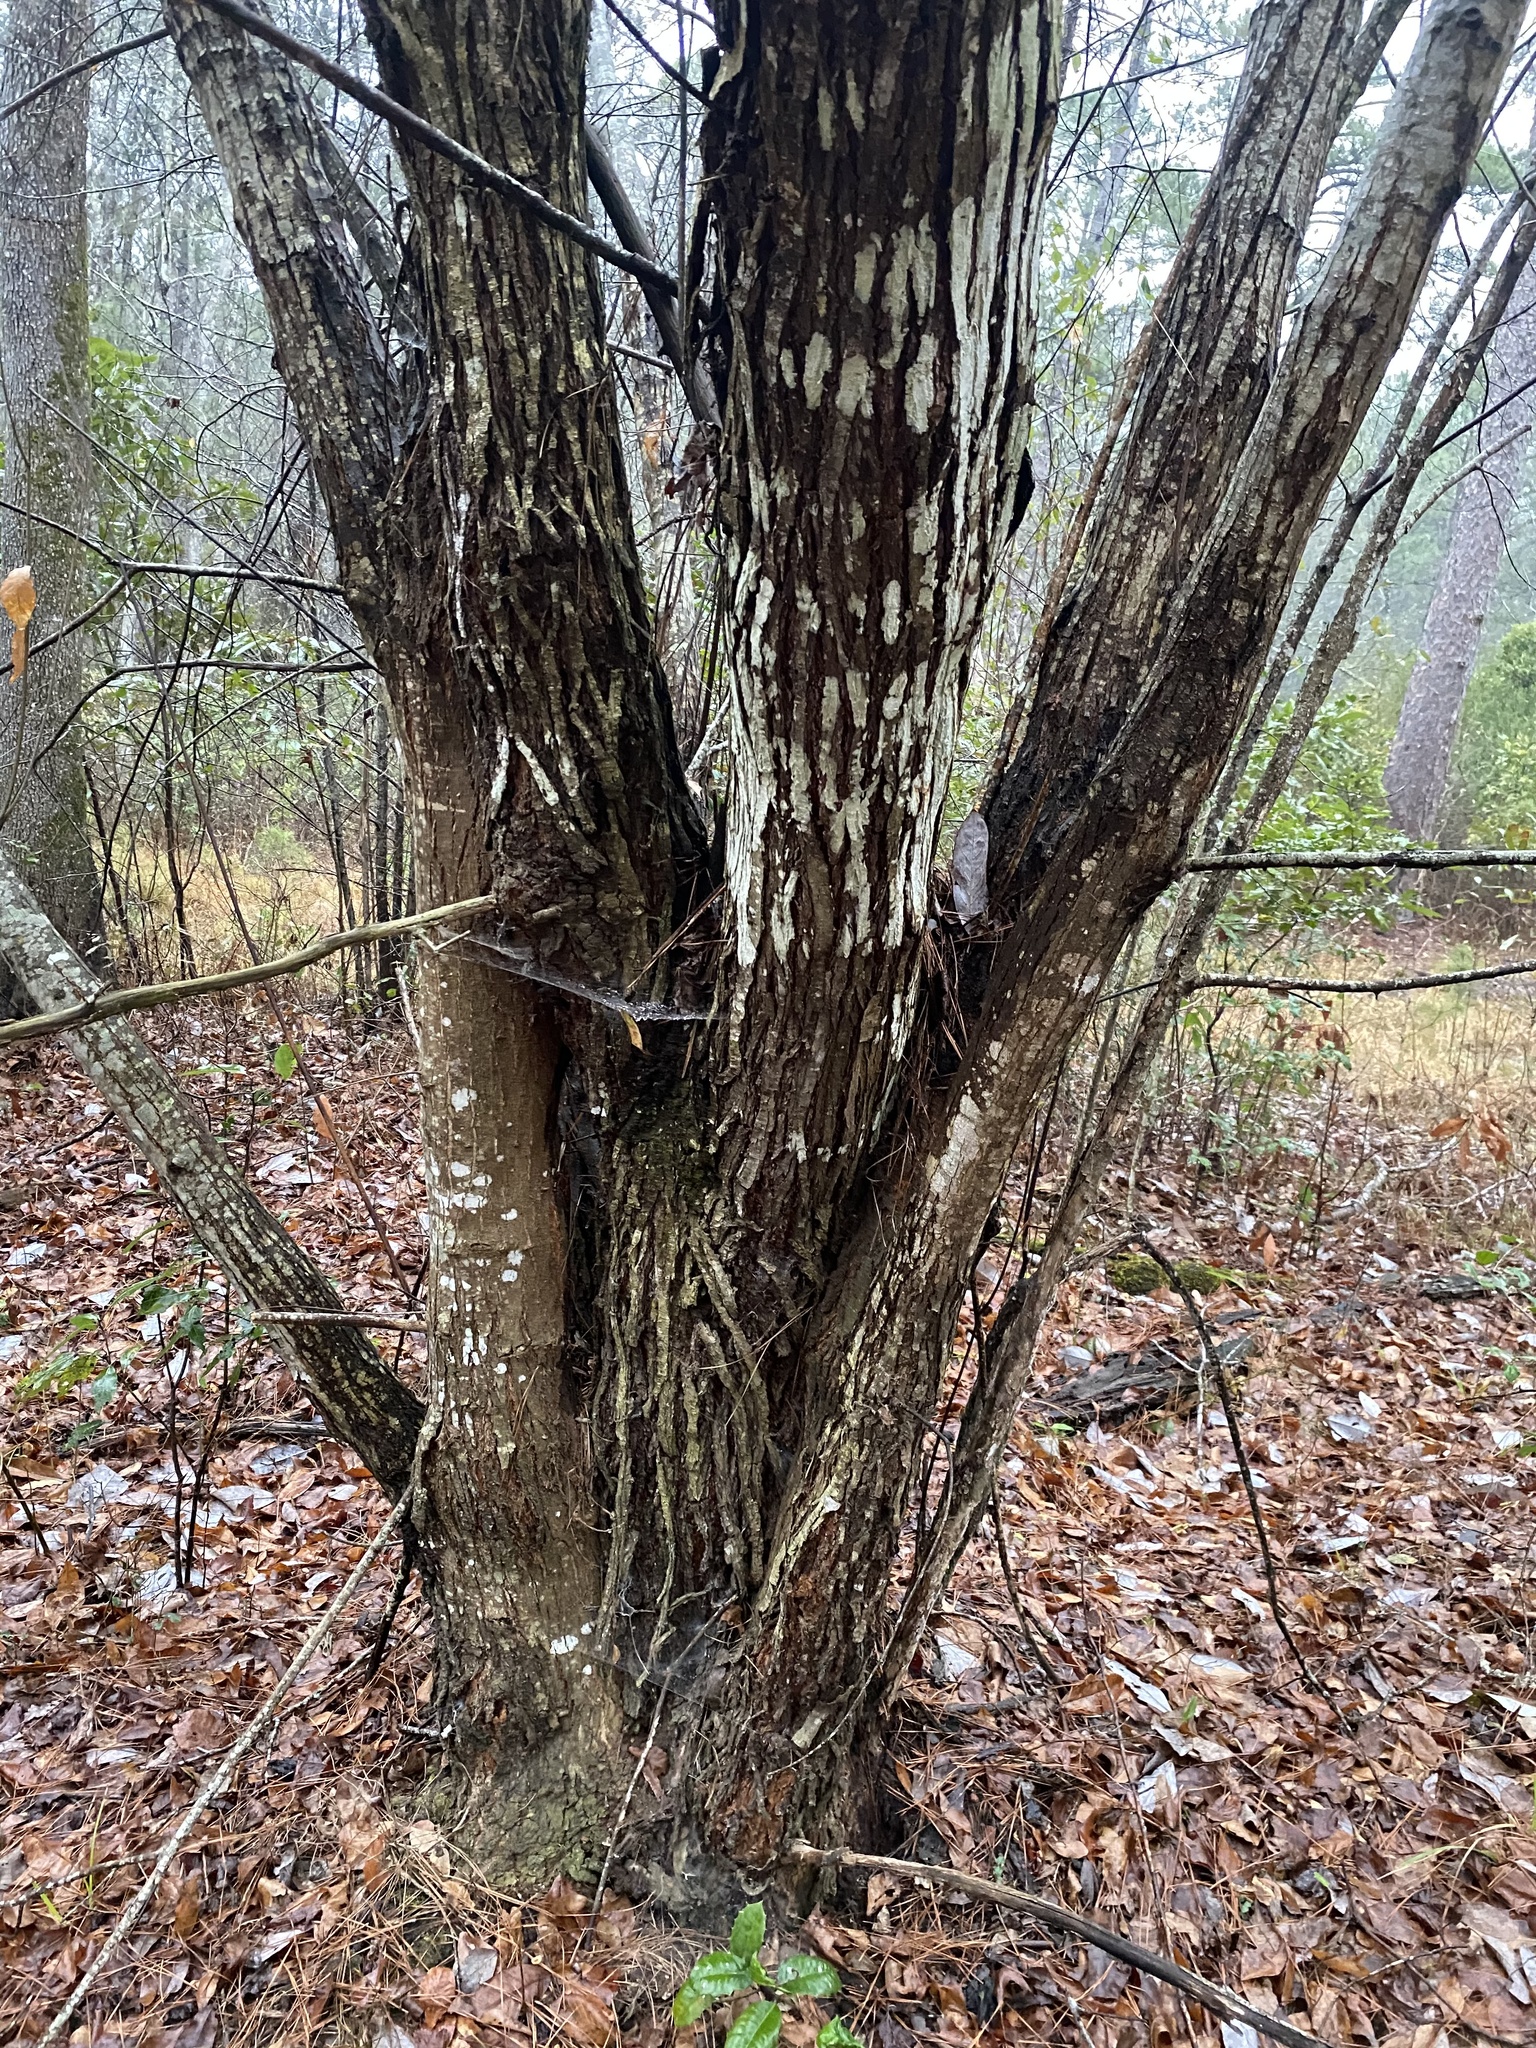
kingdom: Plantae
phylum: Tracheophyta
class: Magnoliopsida
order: Fagales
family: Fagaceae
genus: Castanea
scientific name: Castanea pumila
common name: Chinkapin
